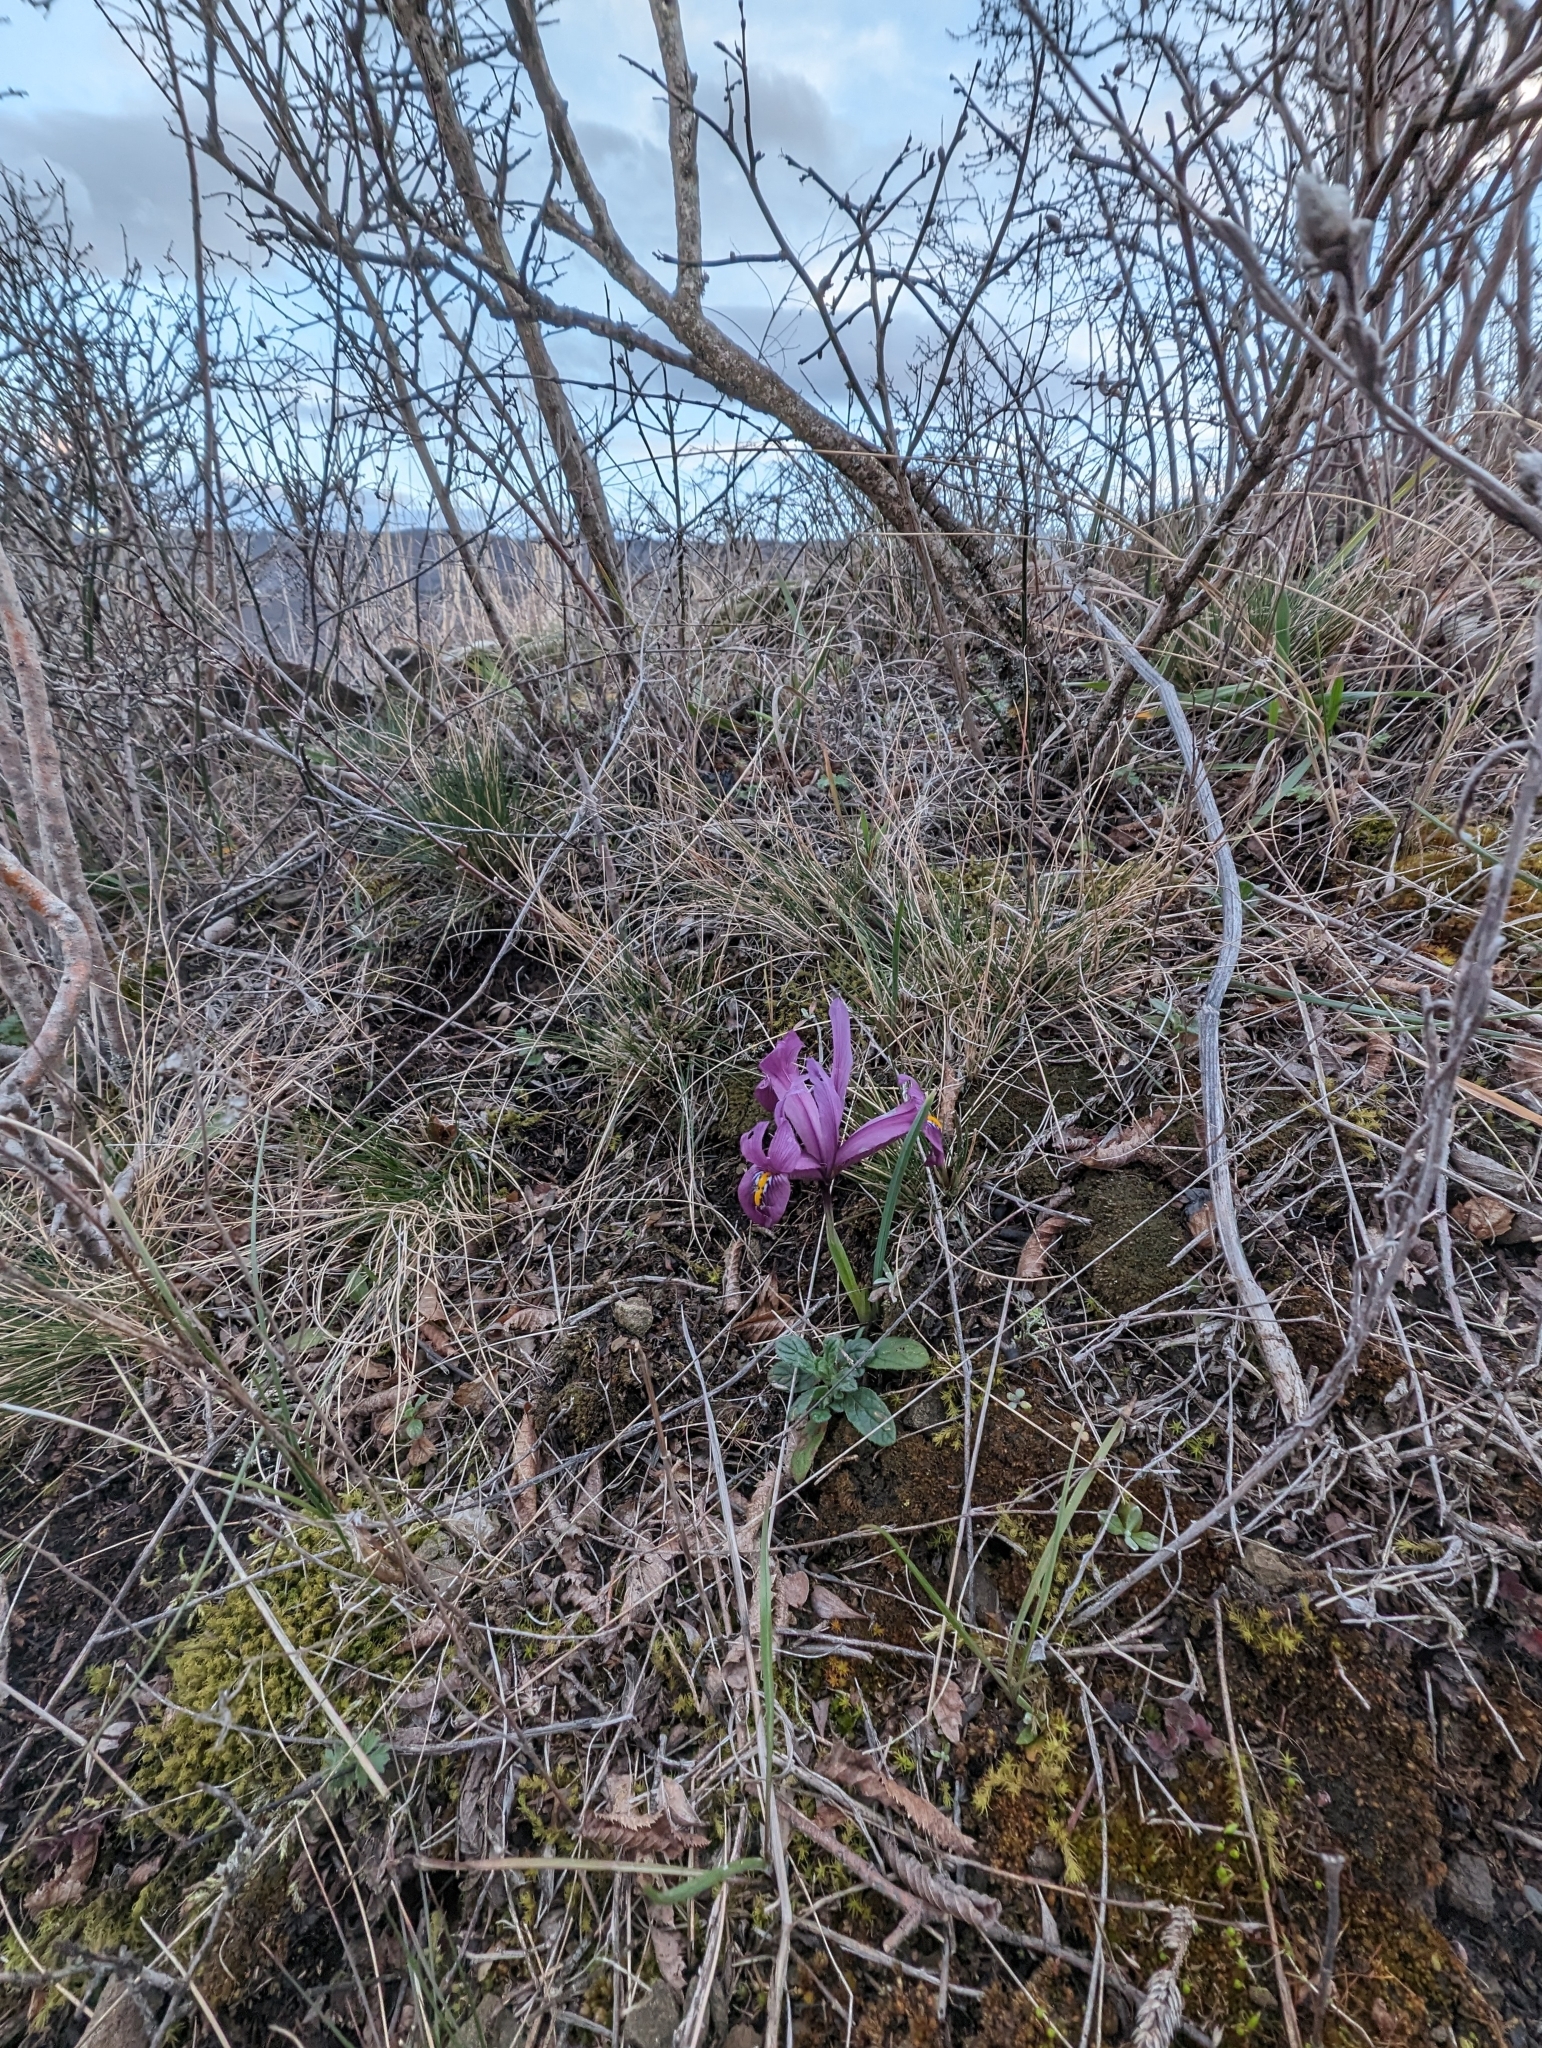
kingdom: Plantae
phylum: Tracheophyta
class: Liliopsida
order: Asparagales
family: Iridaceae
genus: Iris
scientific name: Iris reticulata
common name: Netted iris
